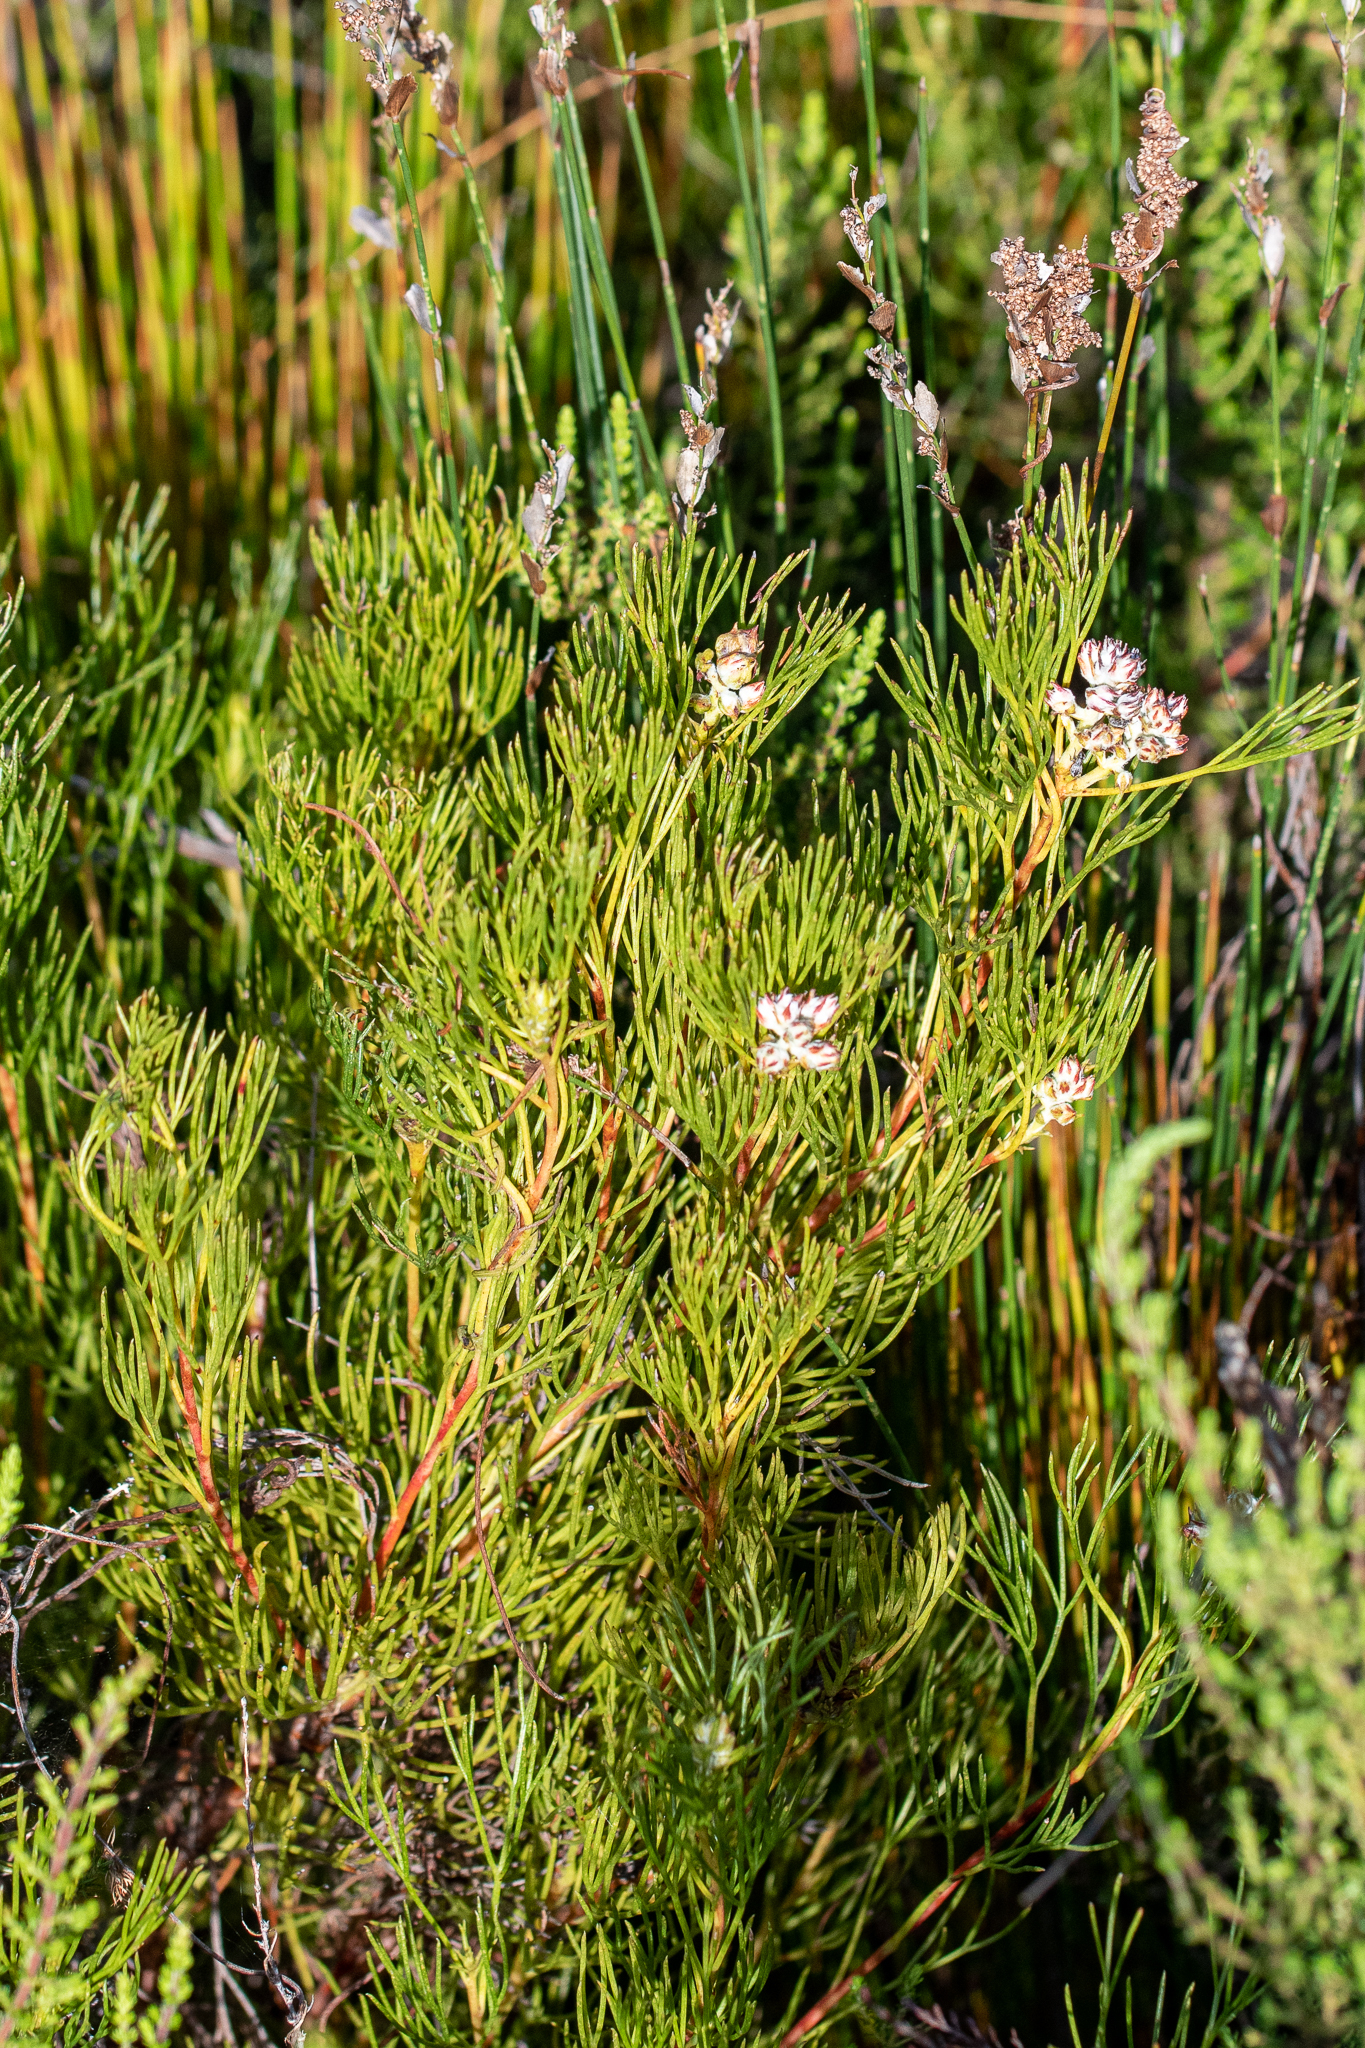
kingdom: Plantae
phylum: Tracheophyta
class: Magnoliopsida
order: Proteales
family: Proteaceae
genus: Serruria
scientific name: Serruria ascendens
